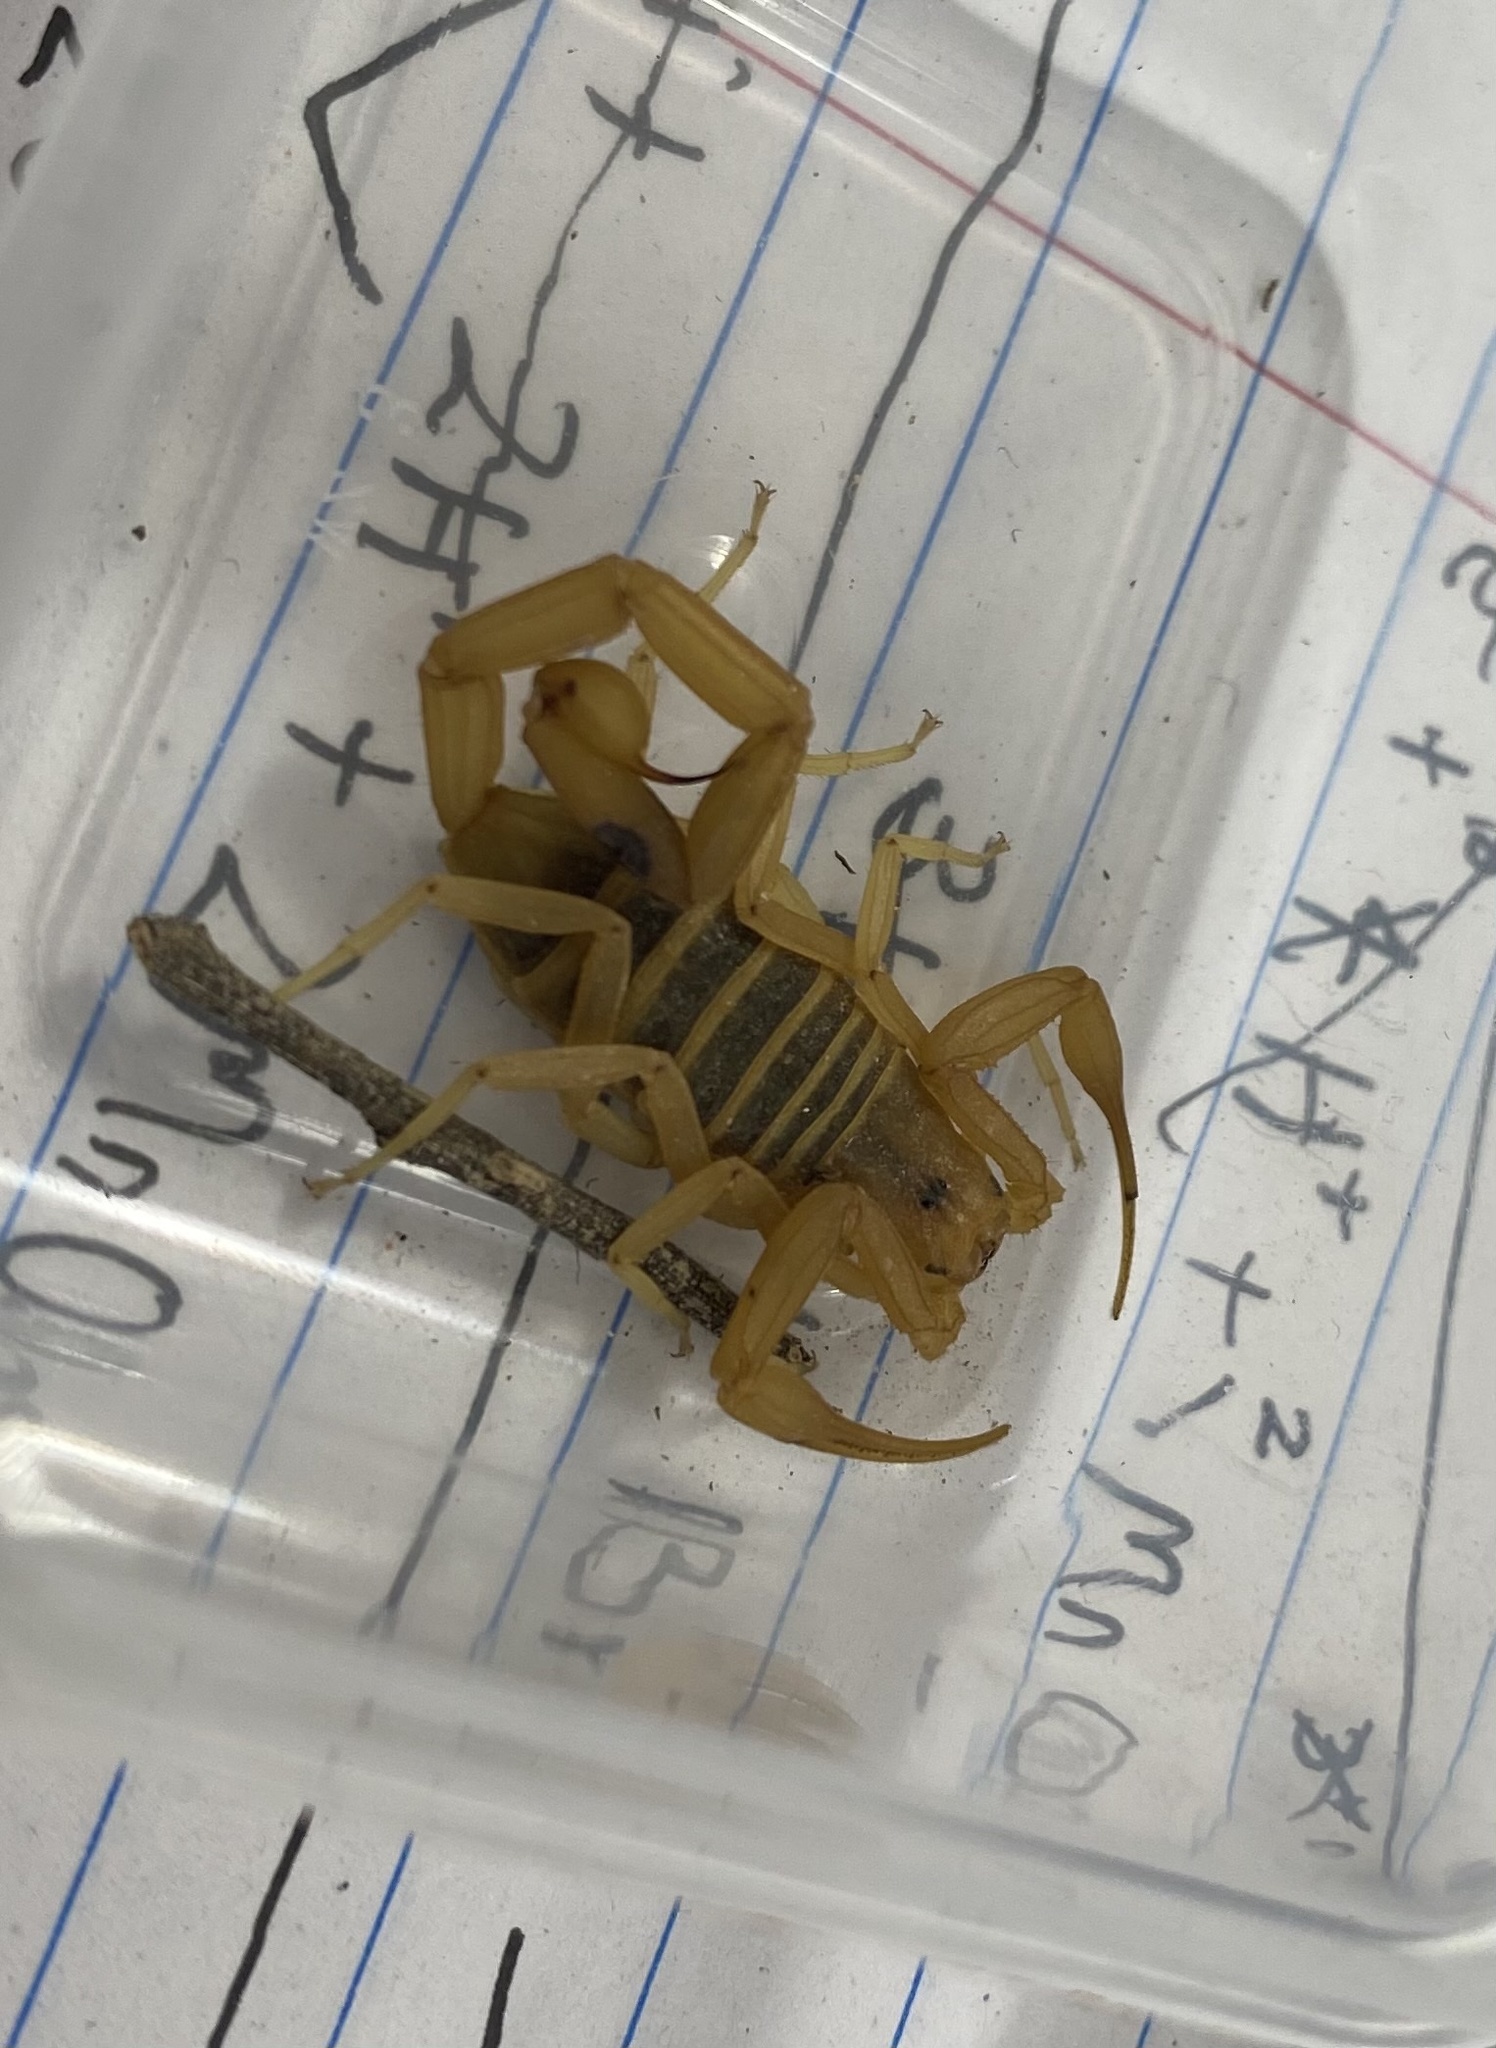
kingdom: Animalia
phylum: Arthropoda
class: Arachnida
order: Scorpiones
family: Buthidae
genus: Centruroides
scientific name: Centruroides sculpturatus
